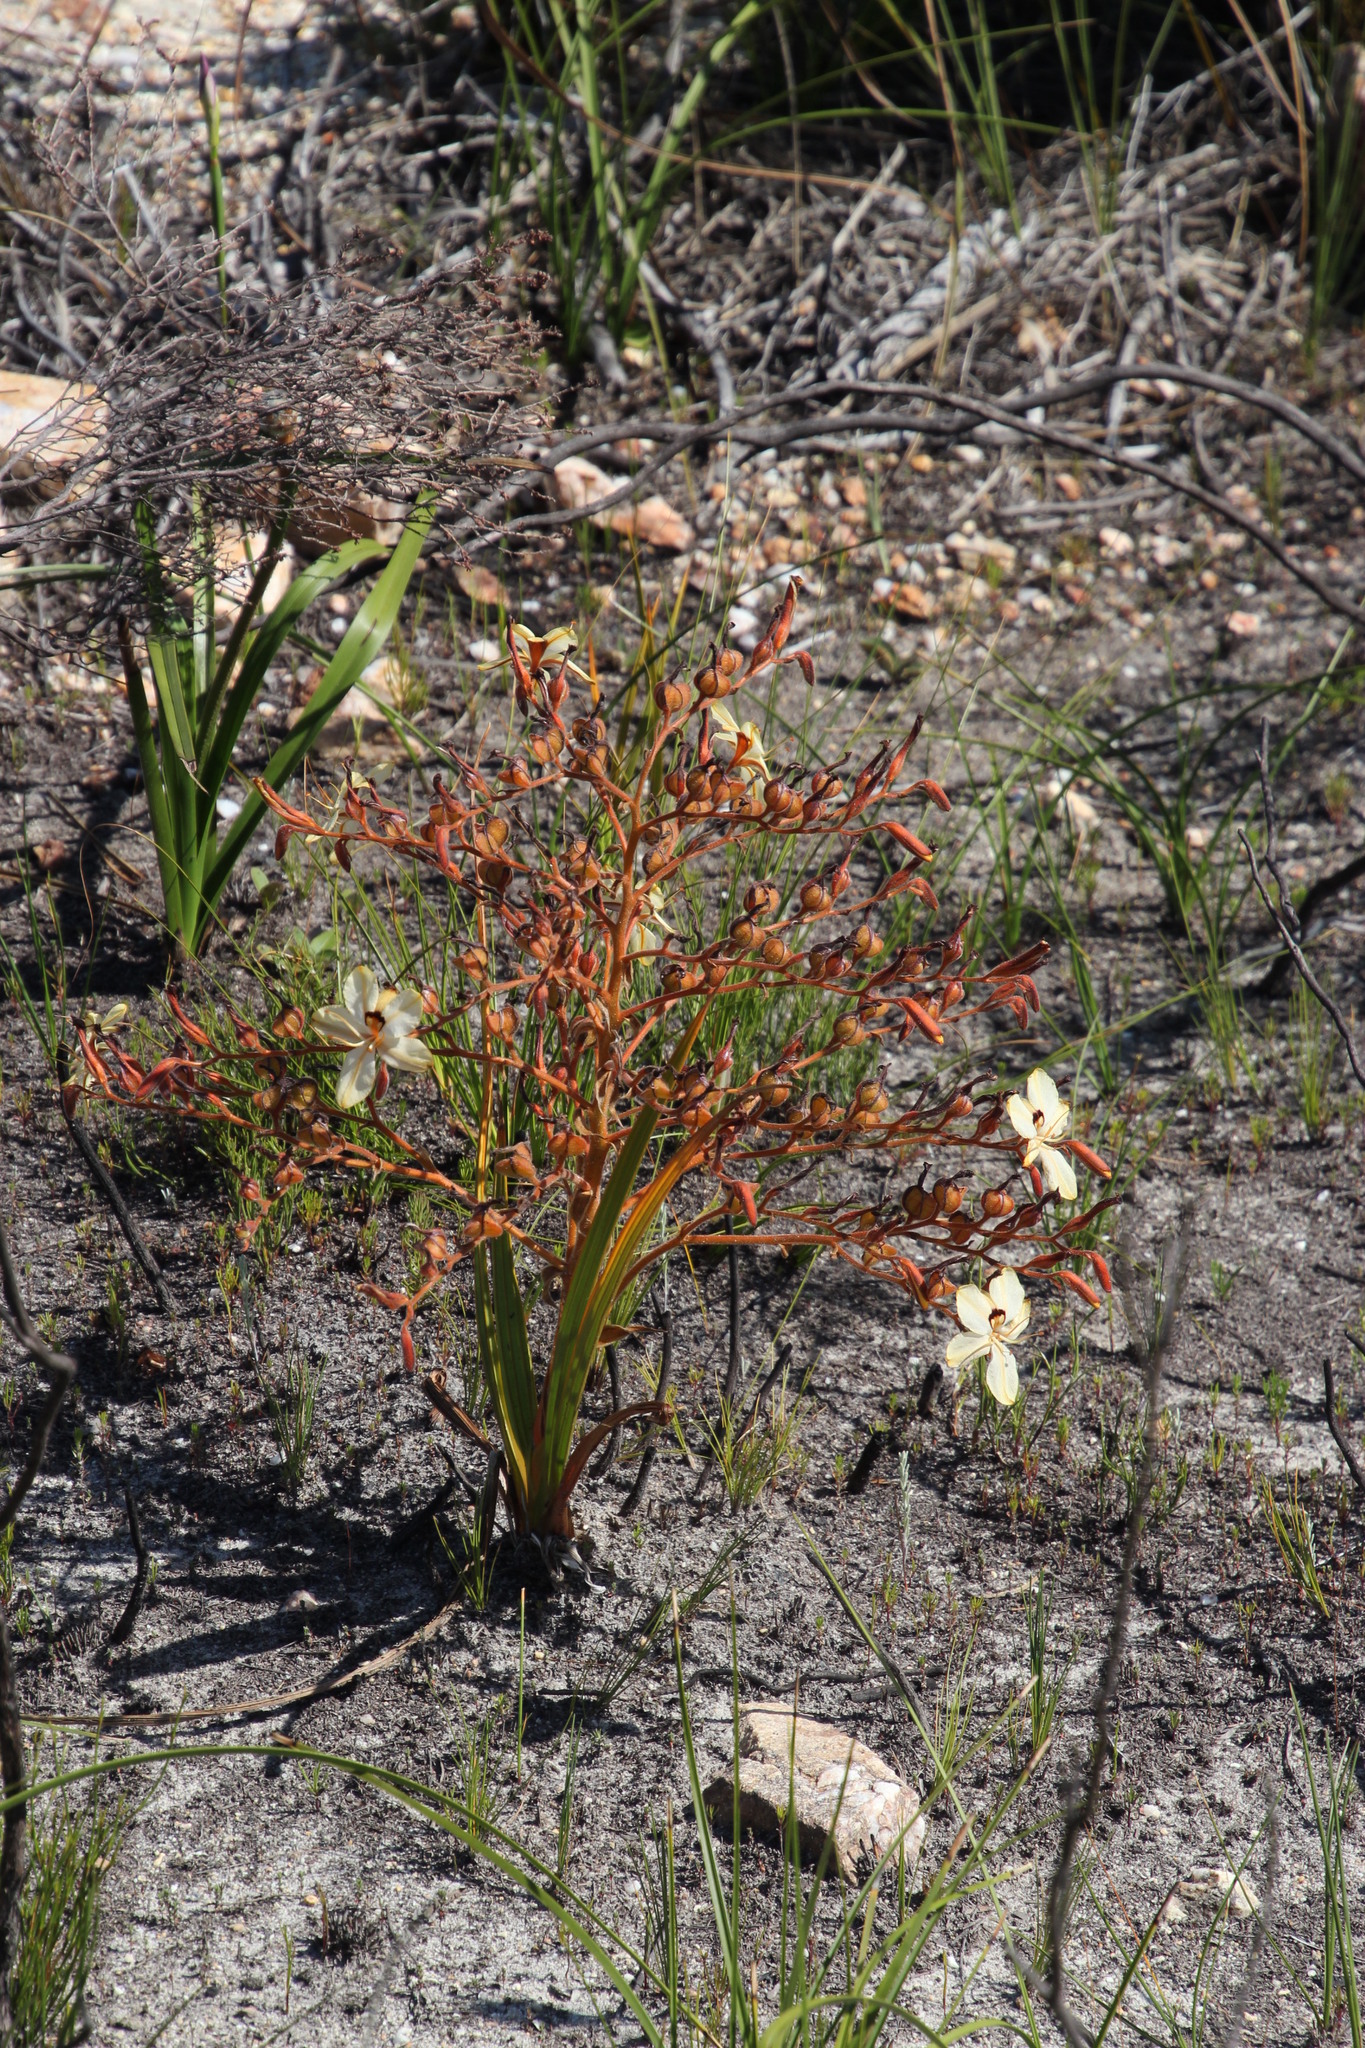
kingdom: Plantae
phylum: Tracheophyta
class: Liliopsida
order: Commelinales
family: Haemodoraceae
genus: Wachendorfia
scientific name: Wachendorfia paniculata
